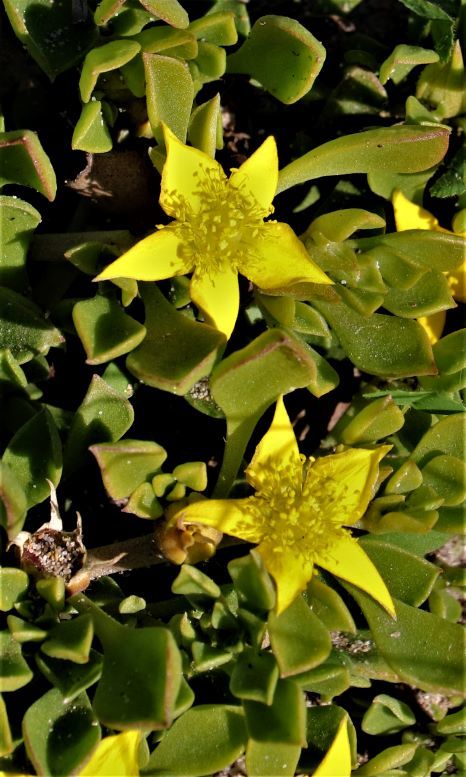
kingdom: Plantae
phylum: Tracheophyta
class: Magnoliopsida
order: Caryophyllales
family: Aizoaceae
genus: Aizoon
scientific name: Aizoon rigidum
